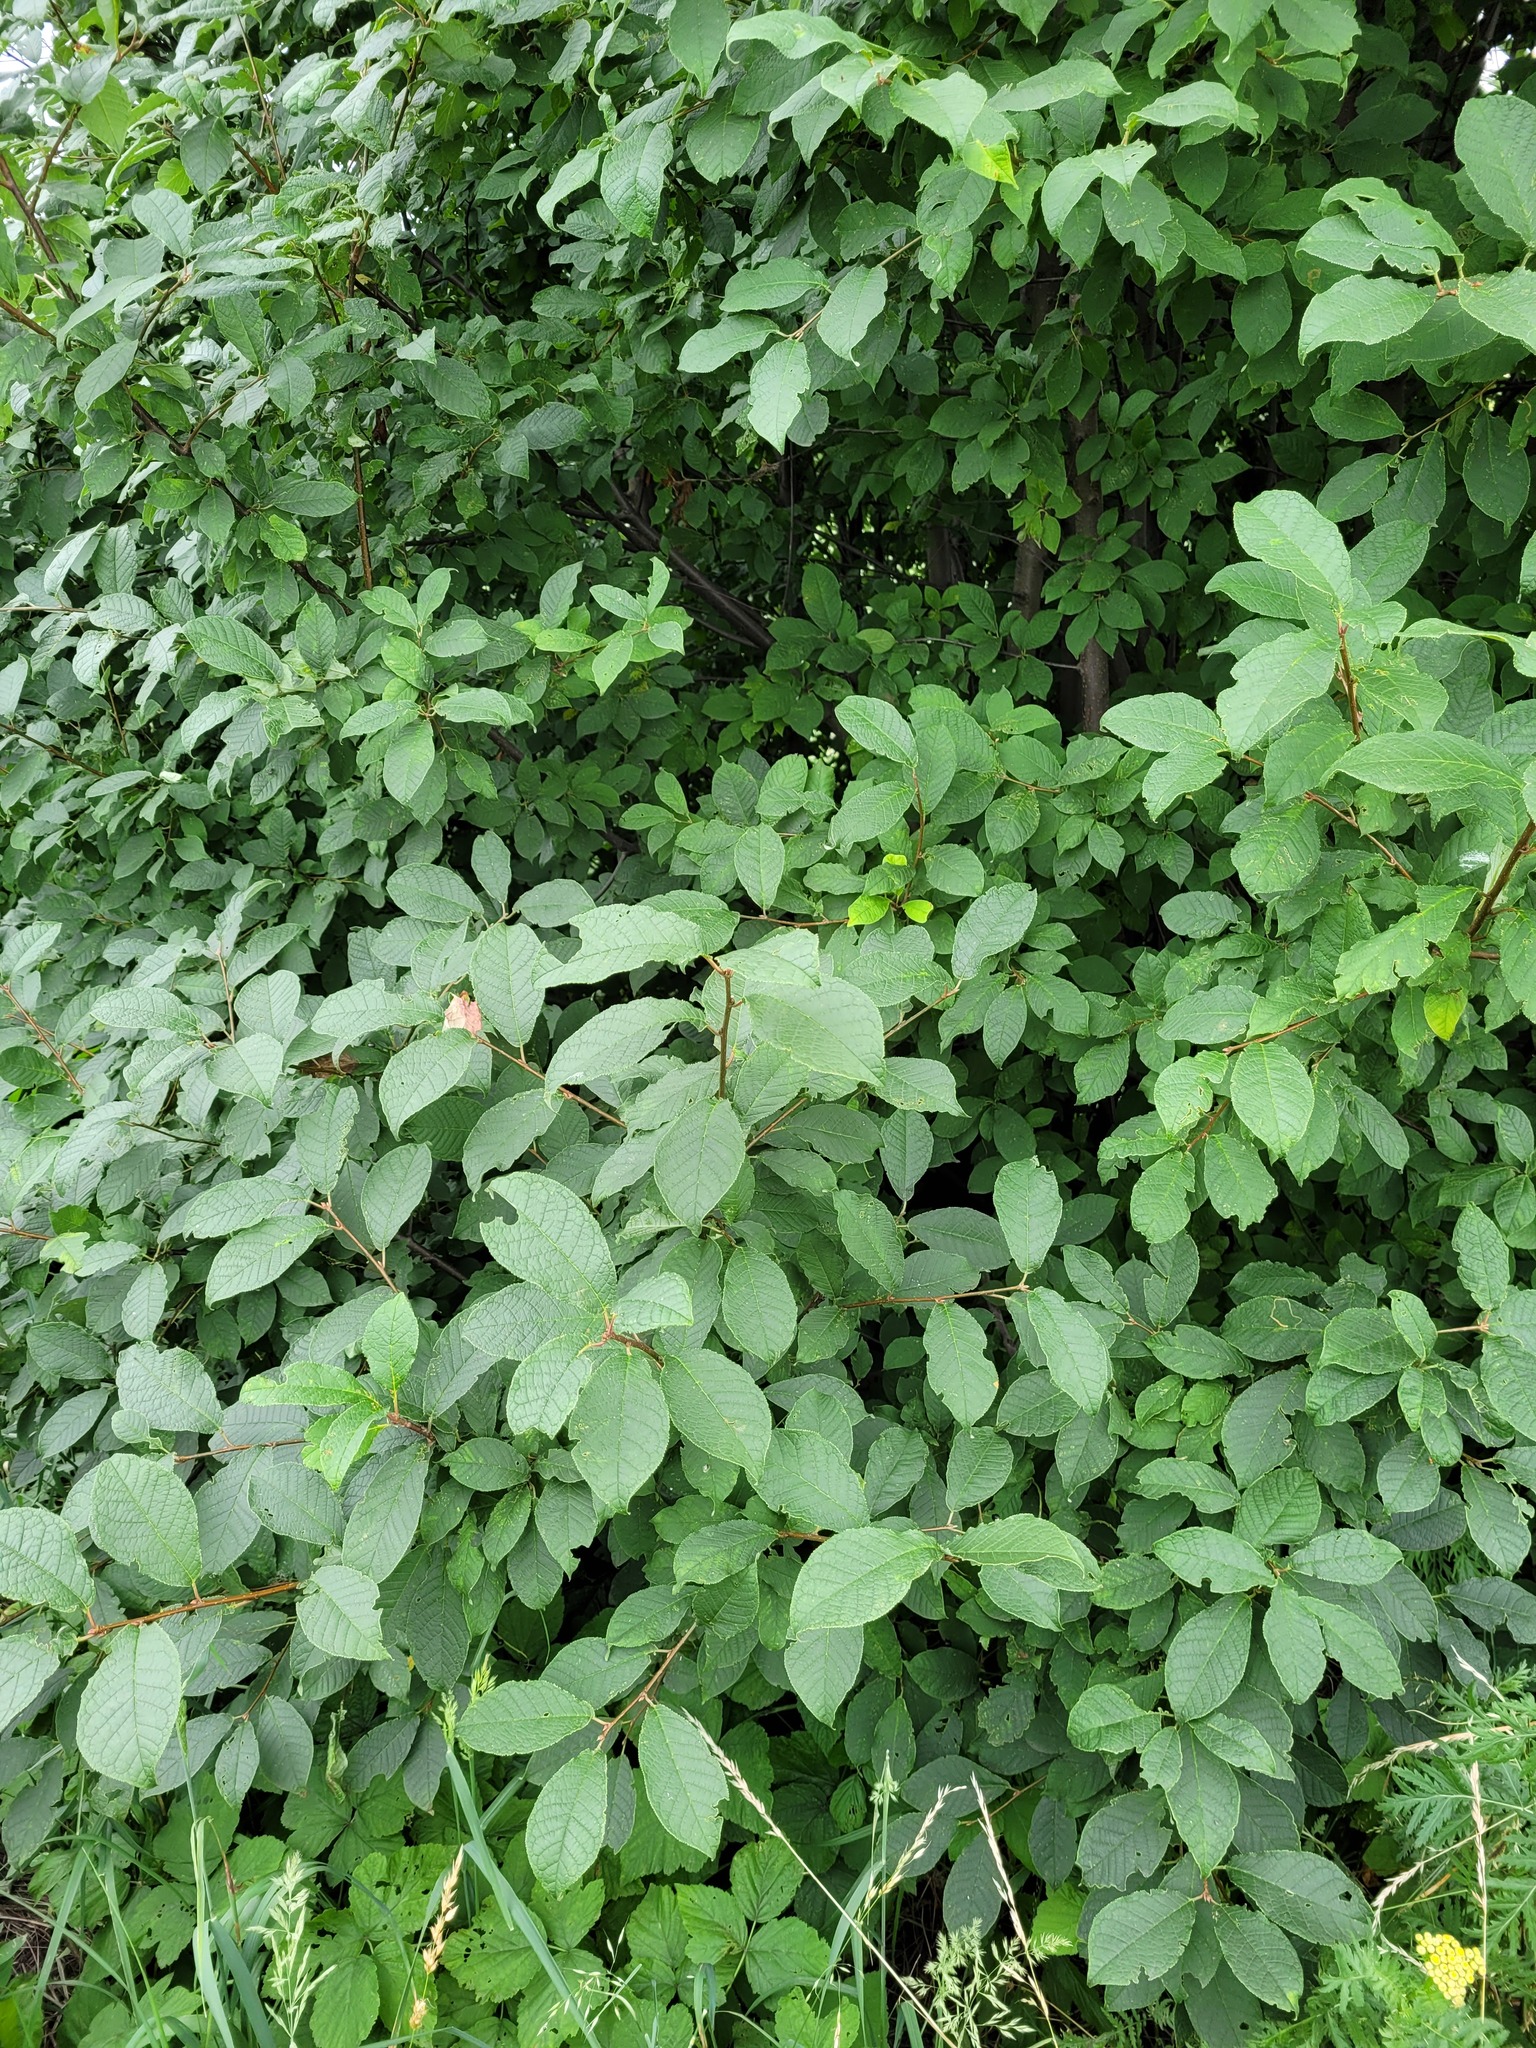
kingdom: Plantae
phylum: Tracheophyta
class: Magnoliopsida
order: Rosales
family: Rosaceae
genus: Prunus
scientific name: Prunus padus
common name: Bird cherry
